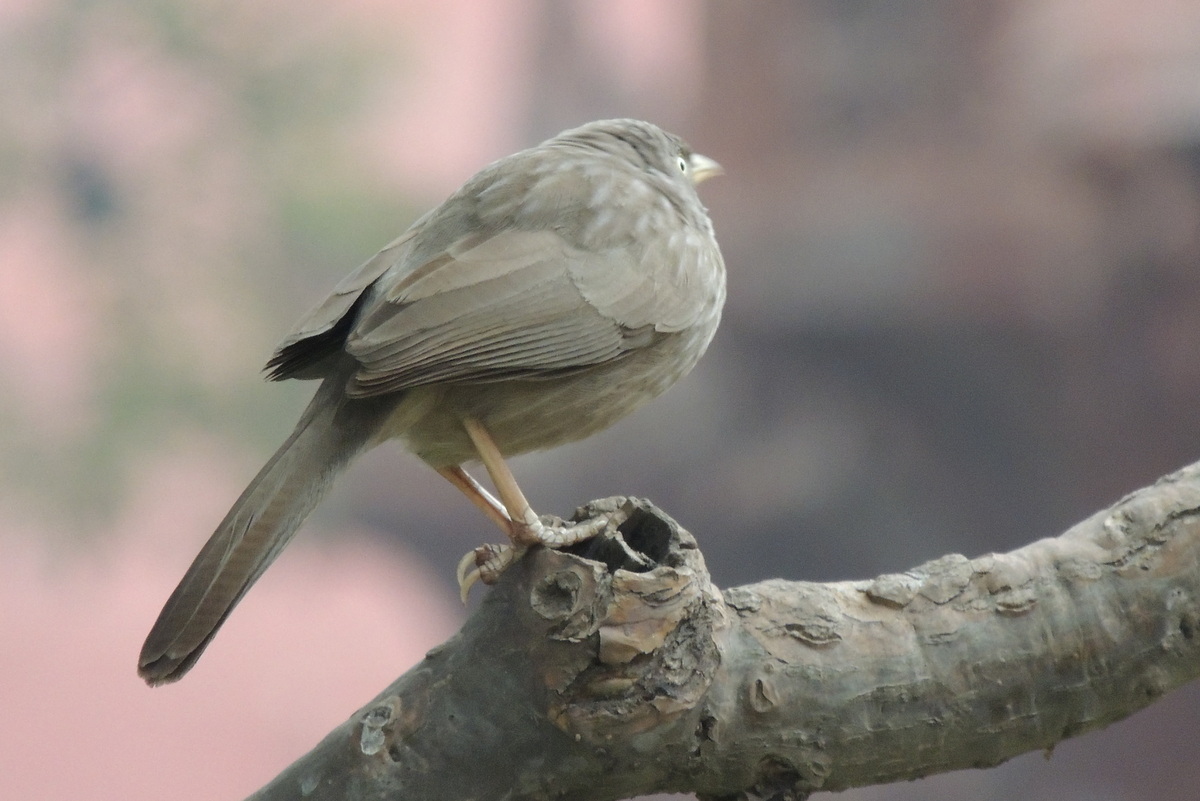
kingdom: Animalia
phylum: Chordata
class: Aves
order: Passeriformes
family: Leiothrichidae
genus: Turdoides
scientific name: Turdoides striata
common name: Jungle babbler
